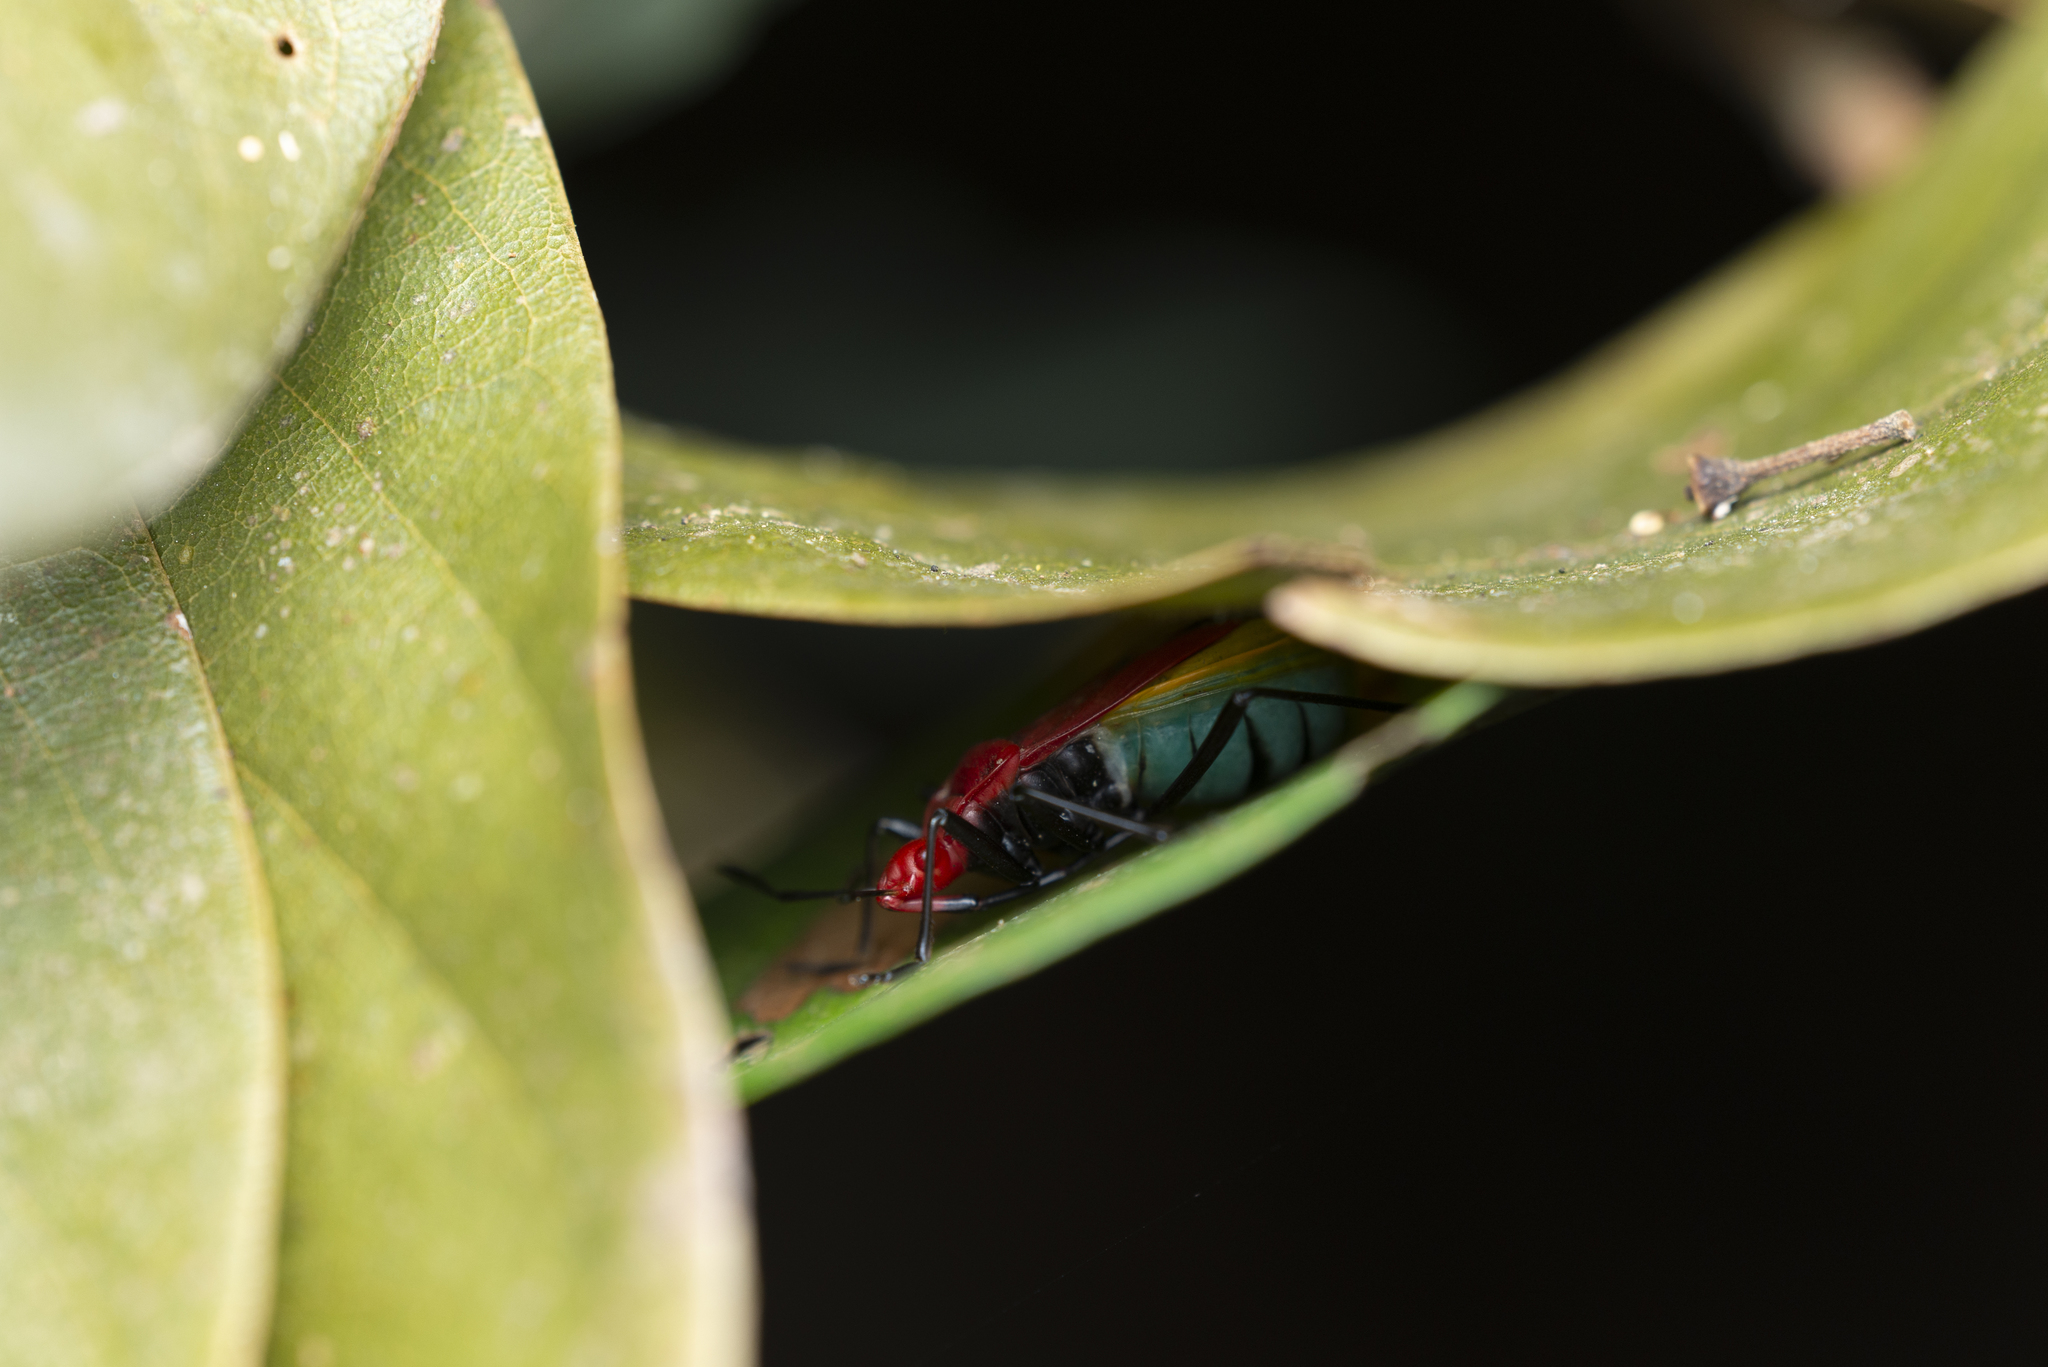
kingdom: Animalia
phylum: Arthropoda
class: Insecta
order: Hemiptera
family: Pyrrhocoridae
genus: Dindymus
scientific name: Dindymus
